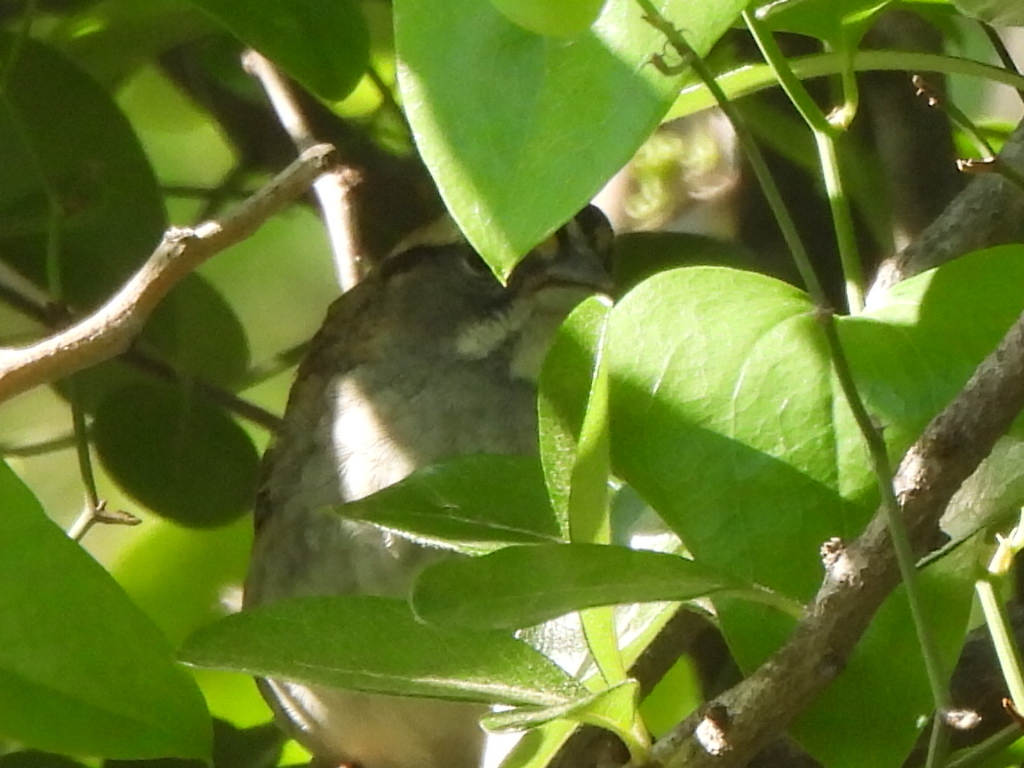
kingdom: Animalia
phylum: Chordata
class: Aves
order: Passeriformes
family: Passerellidae
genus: Zonotrichia
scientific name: Zonotrichia albicollis
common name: White-throated sparrow
